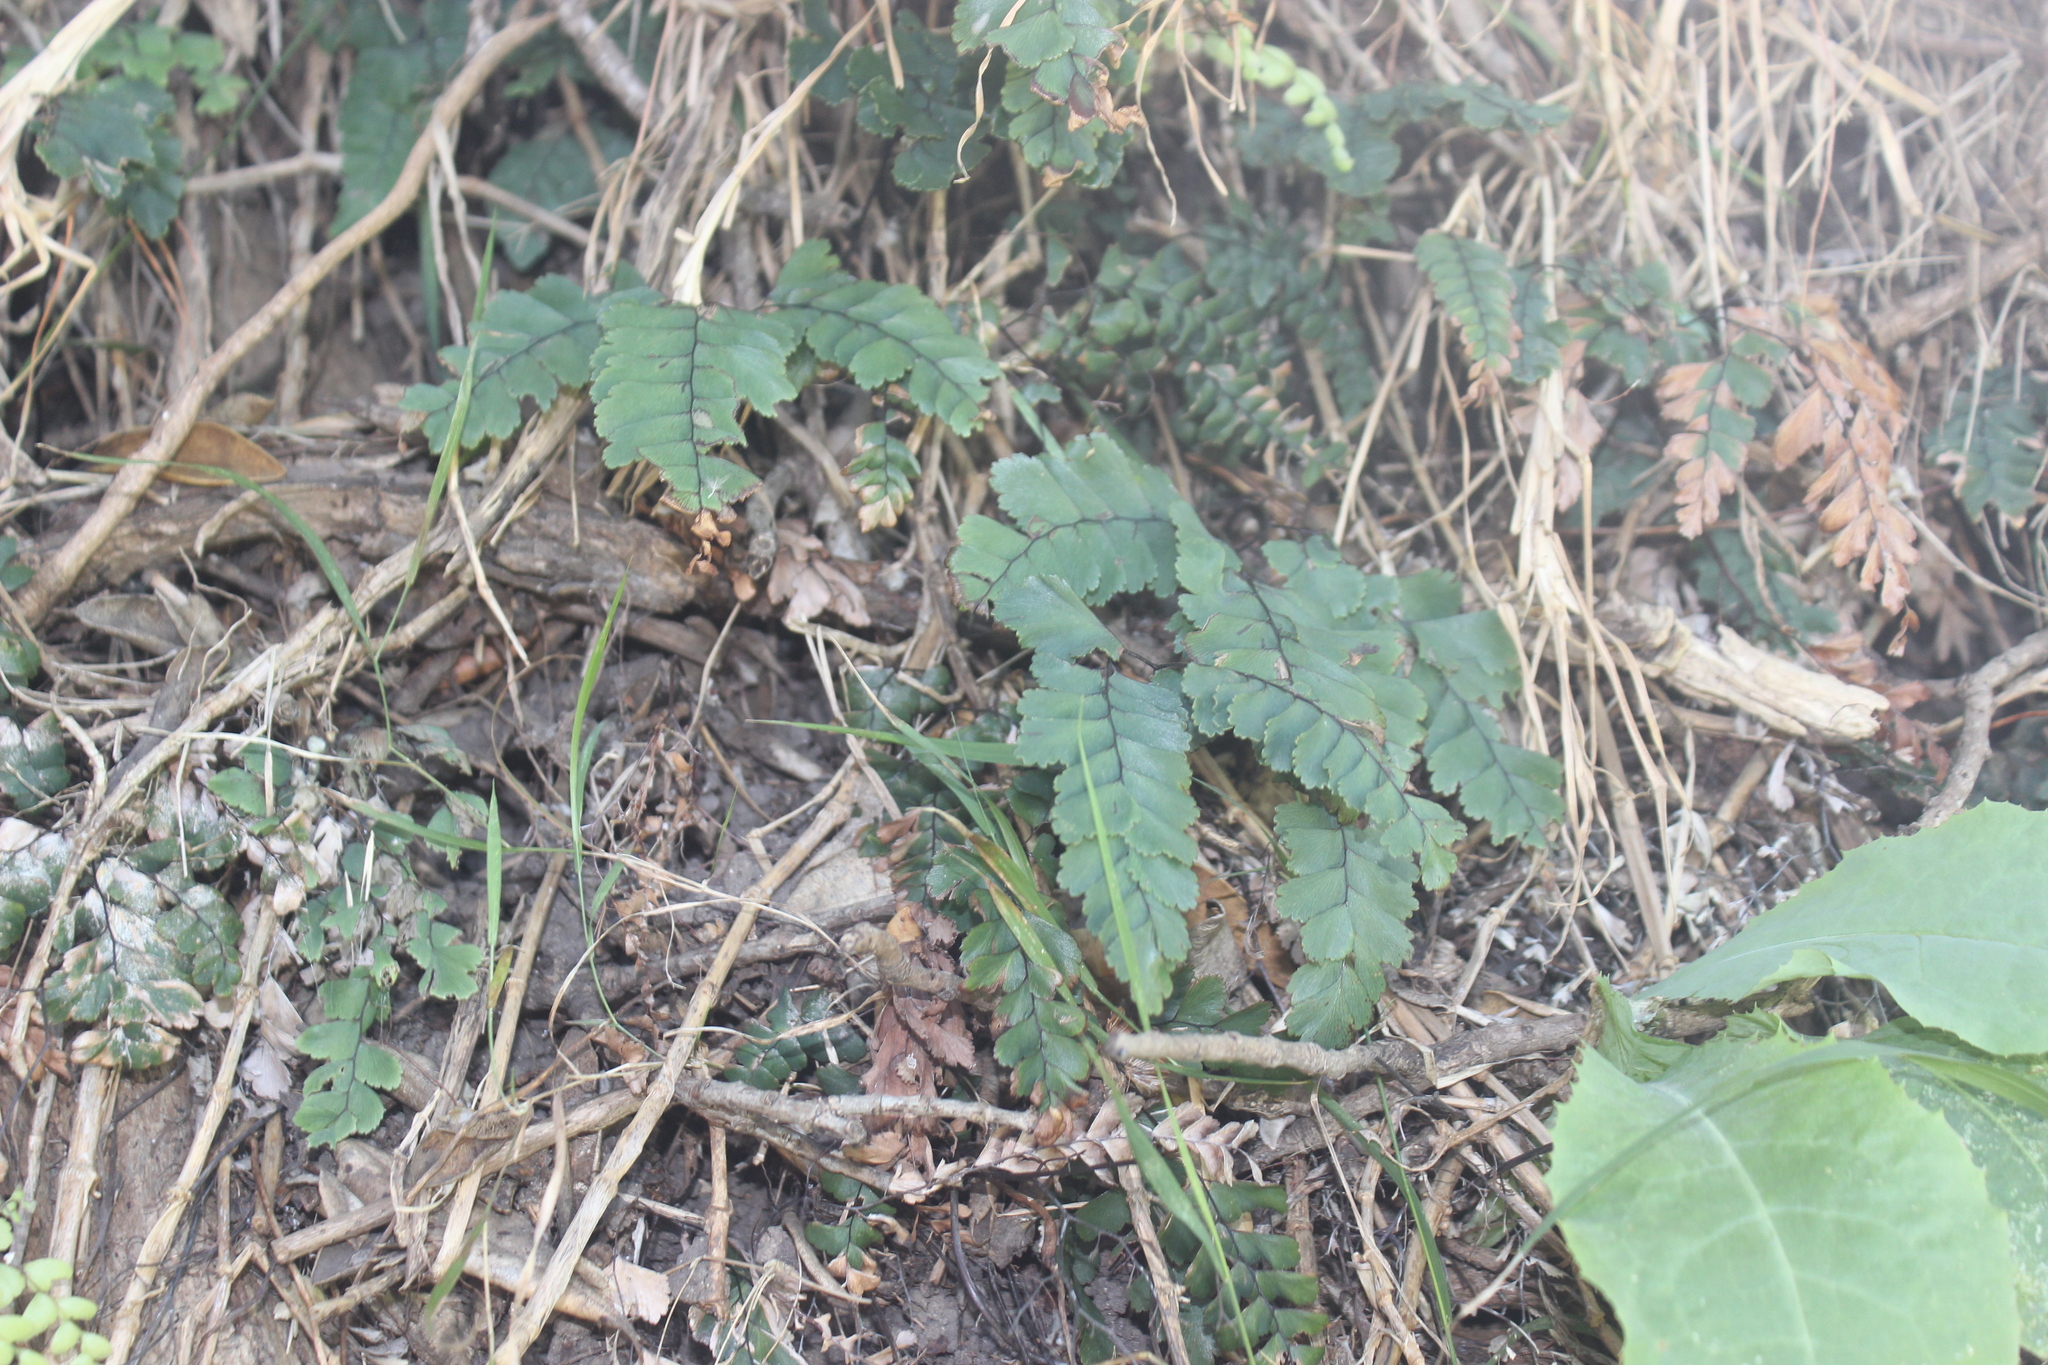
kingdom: Plantae
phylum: Tracheophyta
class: Polypodiopsida
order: Polypodiales
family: Pteridaceae
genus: Adiantum
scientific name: Adiantum cunninghamii
